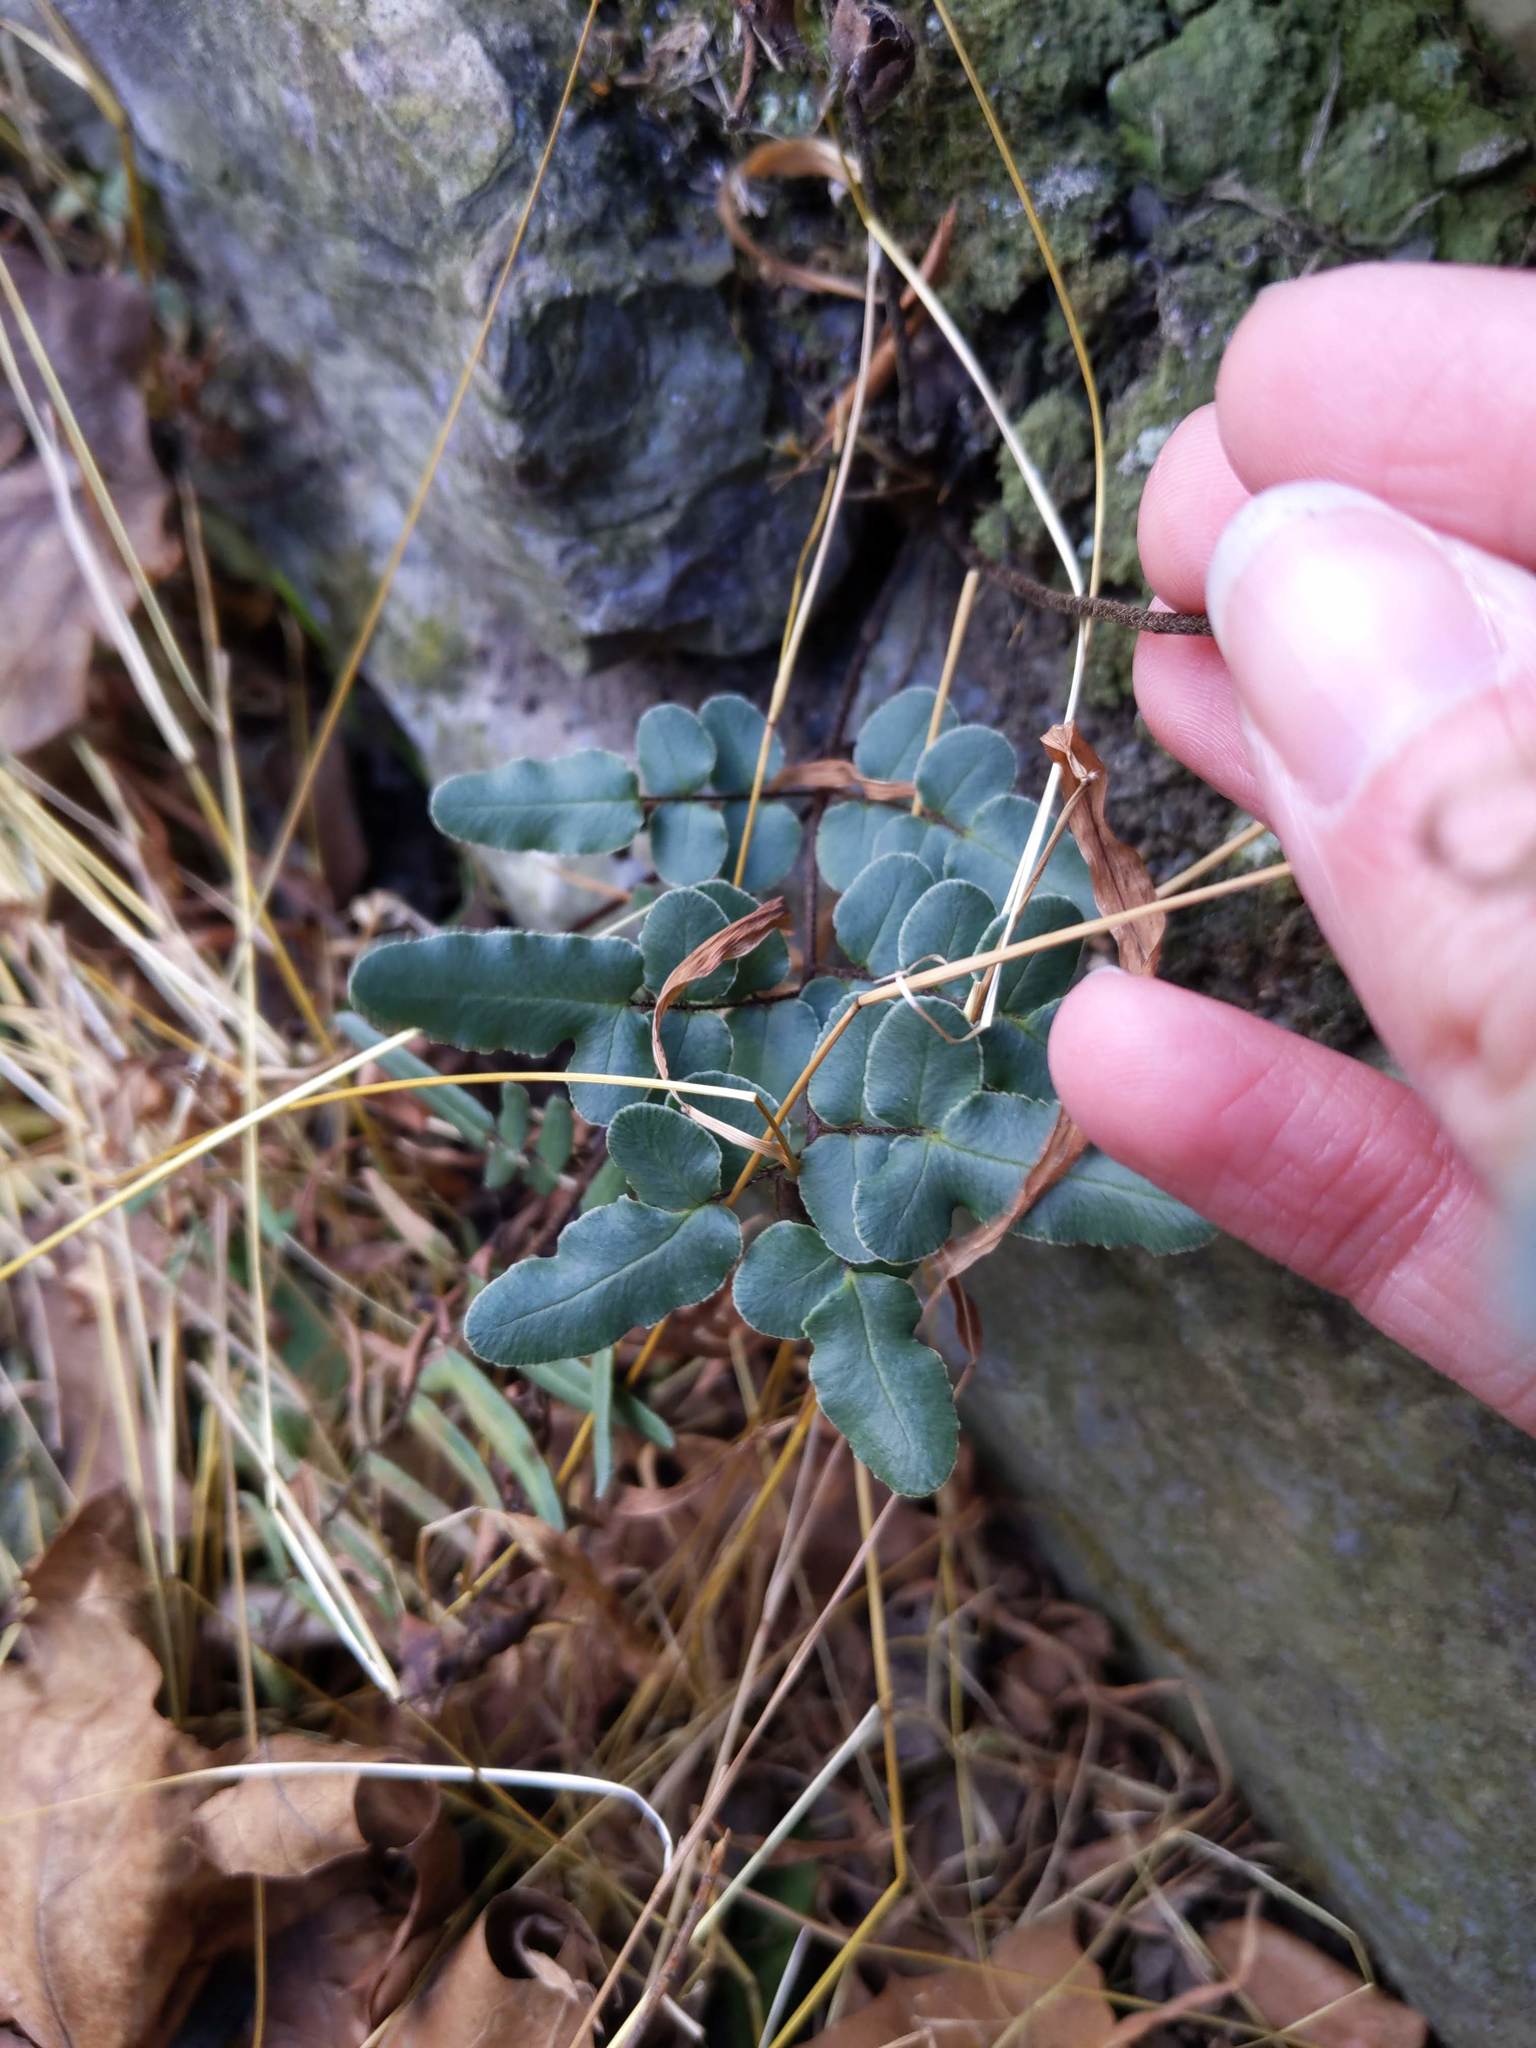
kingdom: Plantae
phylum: Tracheophyta
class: Polypodiopsida
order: Polypodiales
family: Pteridaceae
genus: Pellaea
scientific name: Pellaea atropurpurea
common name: Hairy cliffbrake
